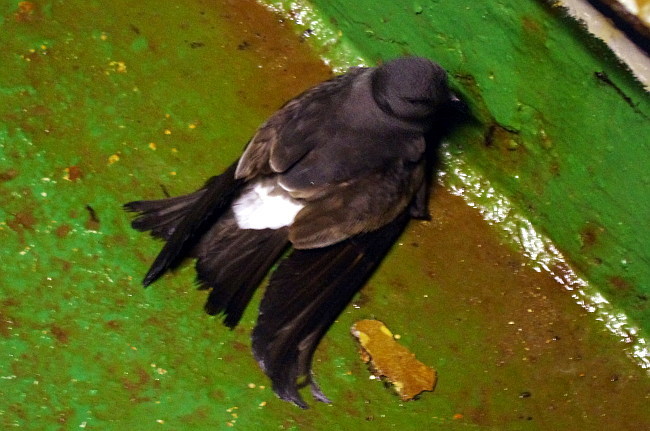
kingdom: Animalia
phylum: Chordata
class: Aves
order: Procellariiformes
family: Hydrobatidae
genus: Oceanodroma
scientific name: Oceanodroma leucorhoa
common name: Leach's storm-petrel
